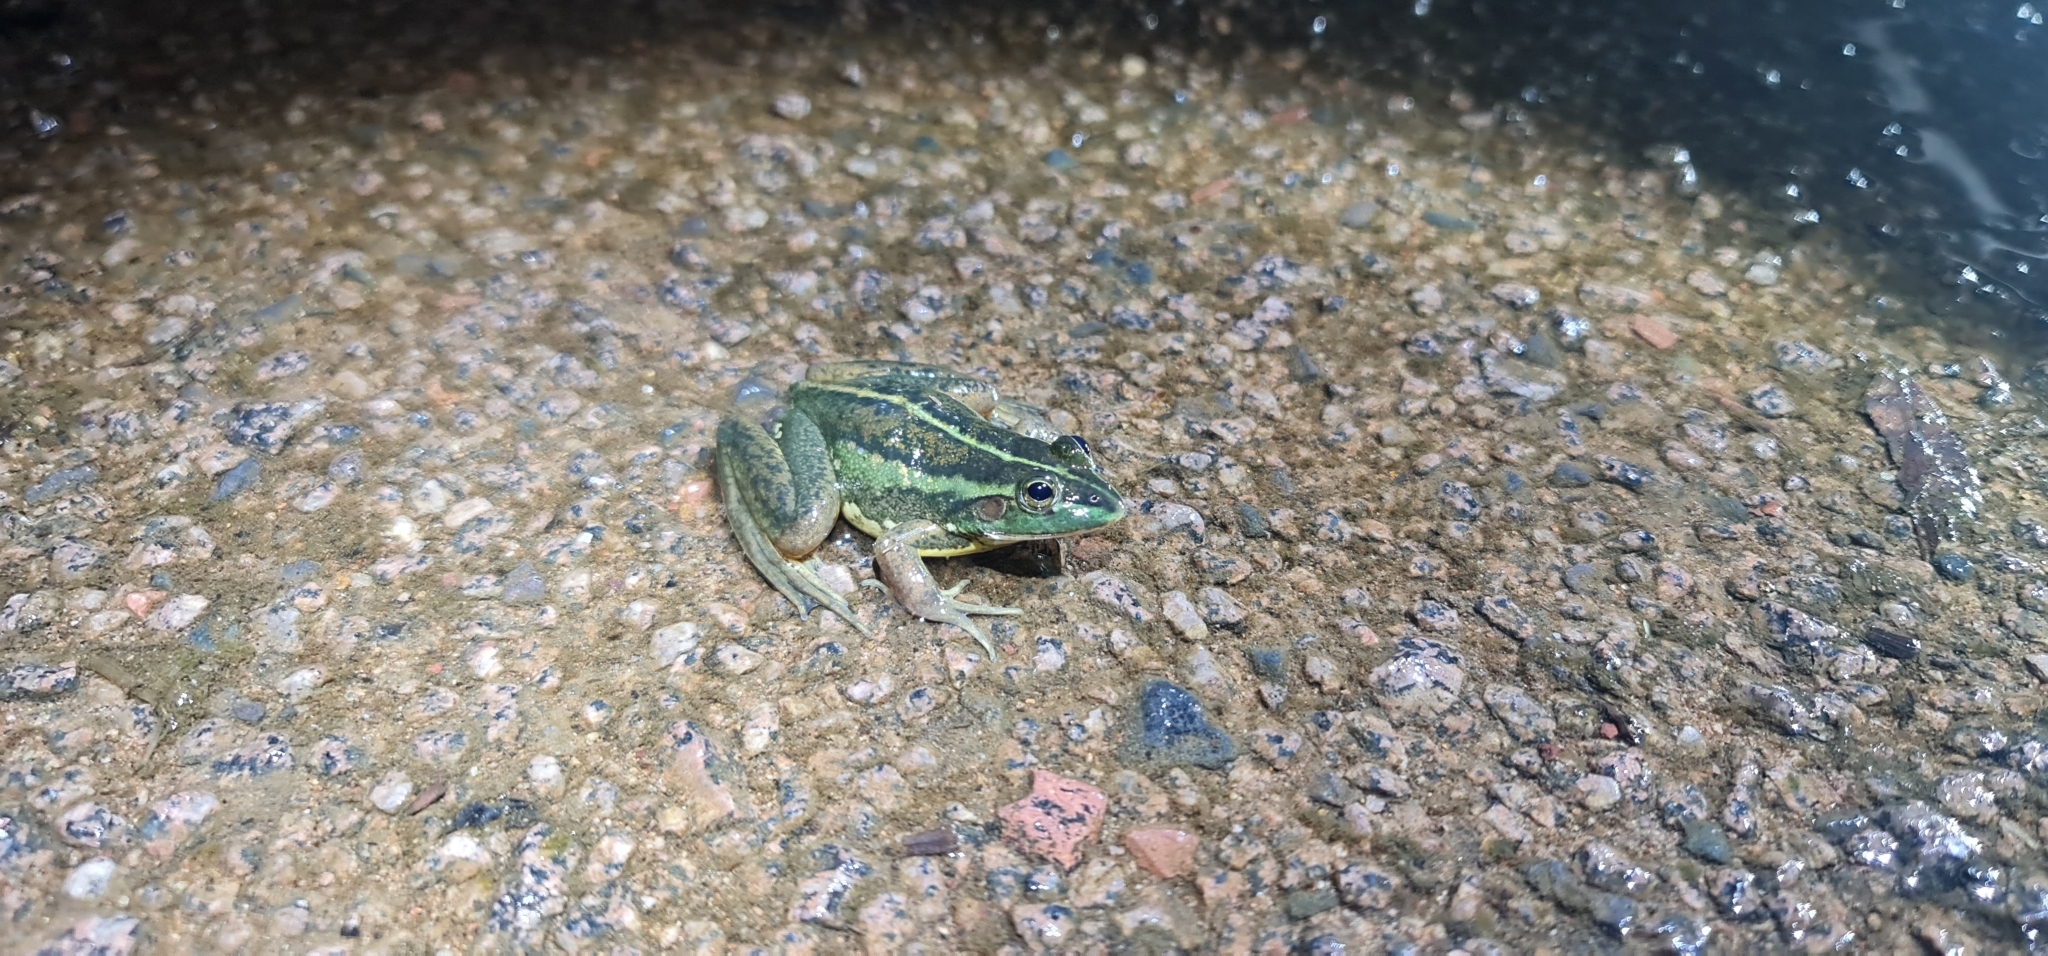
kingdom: Animalia
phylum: Chordata
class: Amphibia
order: Anura
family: Pelodryadidae
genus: Ranoidea
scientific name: Ranoidea dahlii
